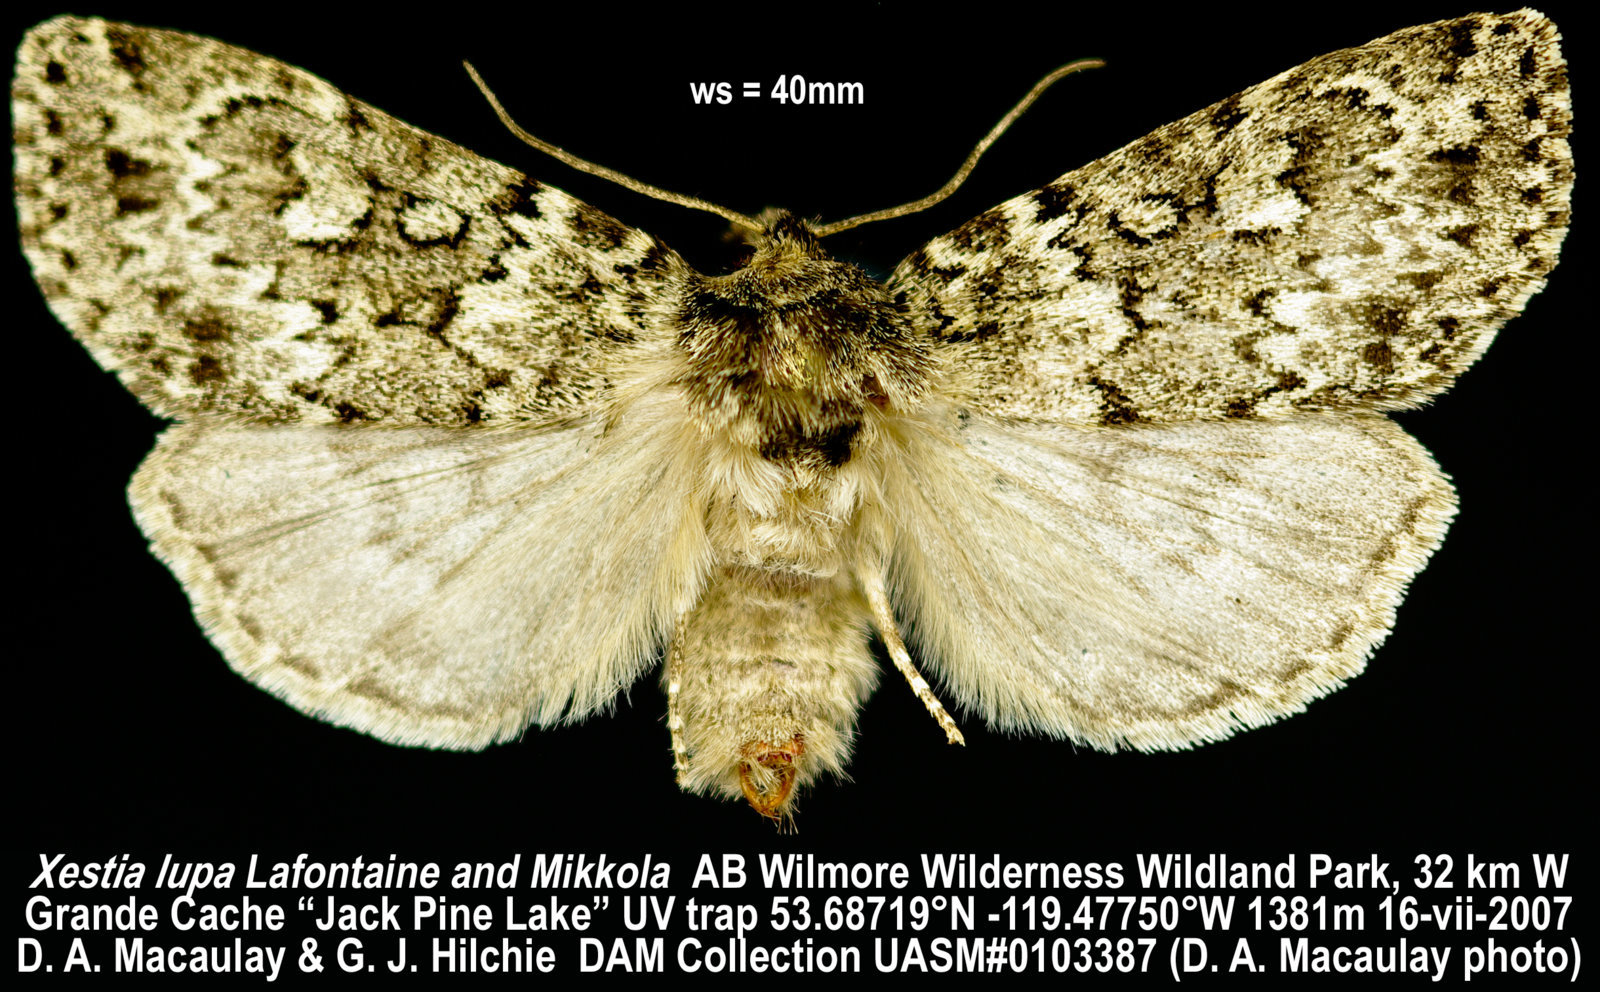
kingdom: Animalia
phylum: Arthropoda
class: Insecta
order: Lepidoptera
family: Noctuidae
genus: Xestia
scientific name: Xestia lupa
